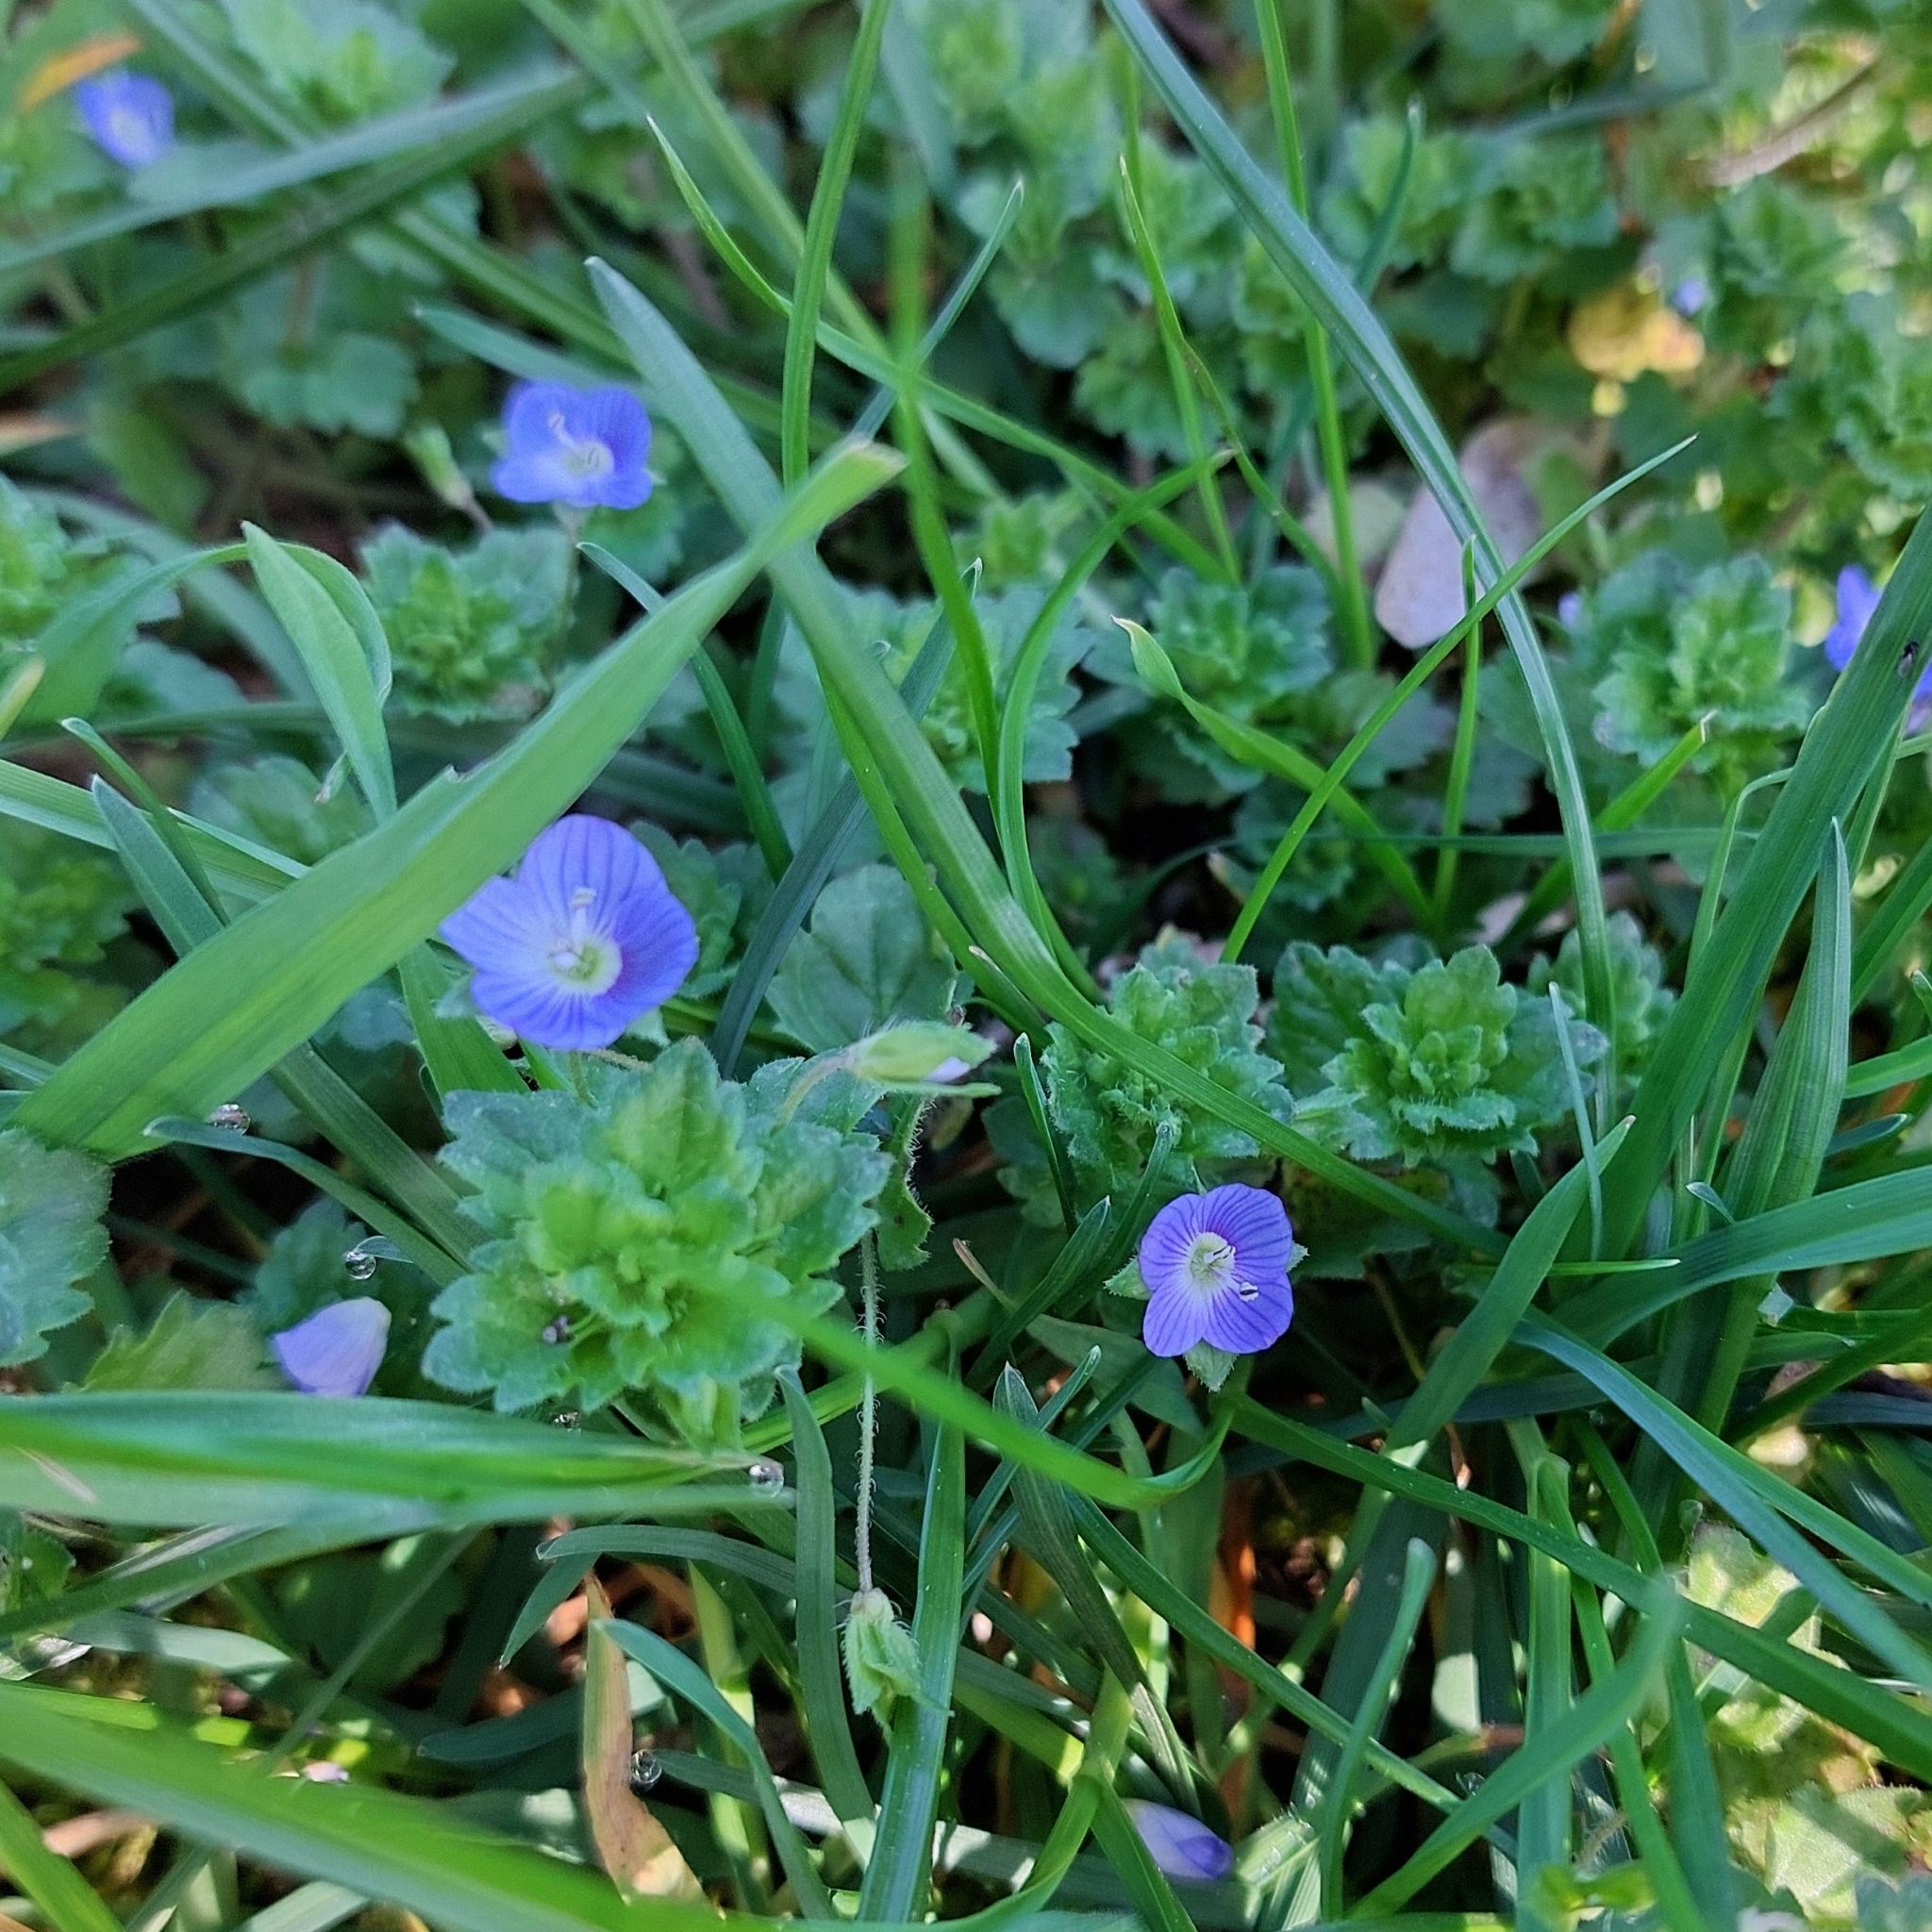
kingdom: Plantae
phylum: Tracheophyta
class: Magnoliopsida
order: Lamiales
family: Plantaginaceae
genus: Veronica
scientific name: Veronica persica
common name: Common field-speedwell
